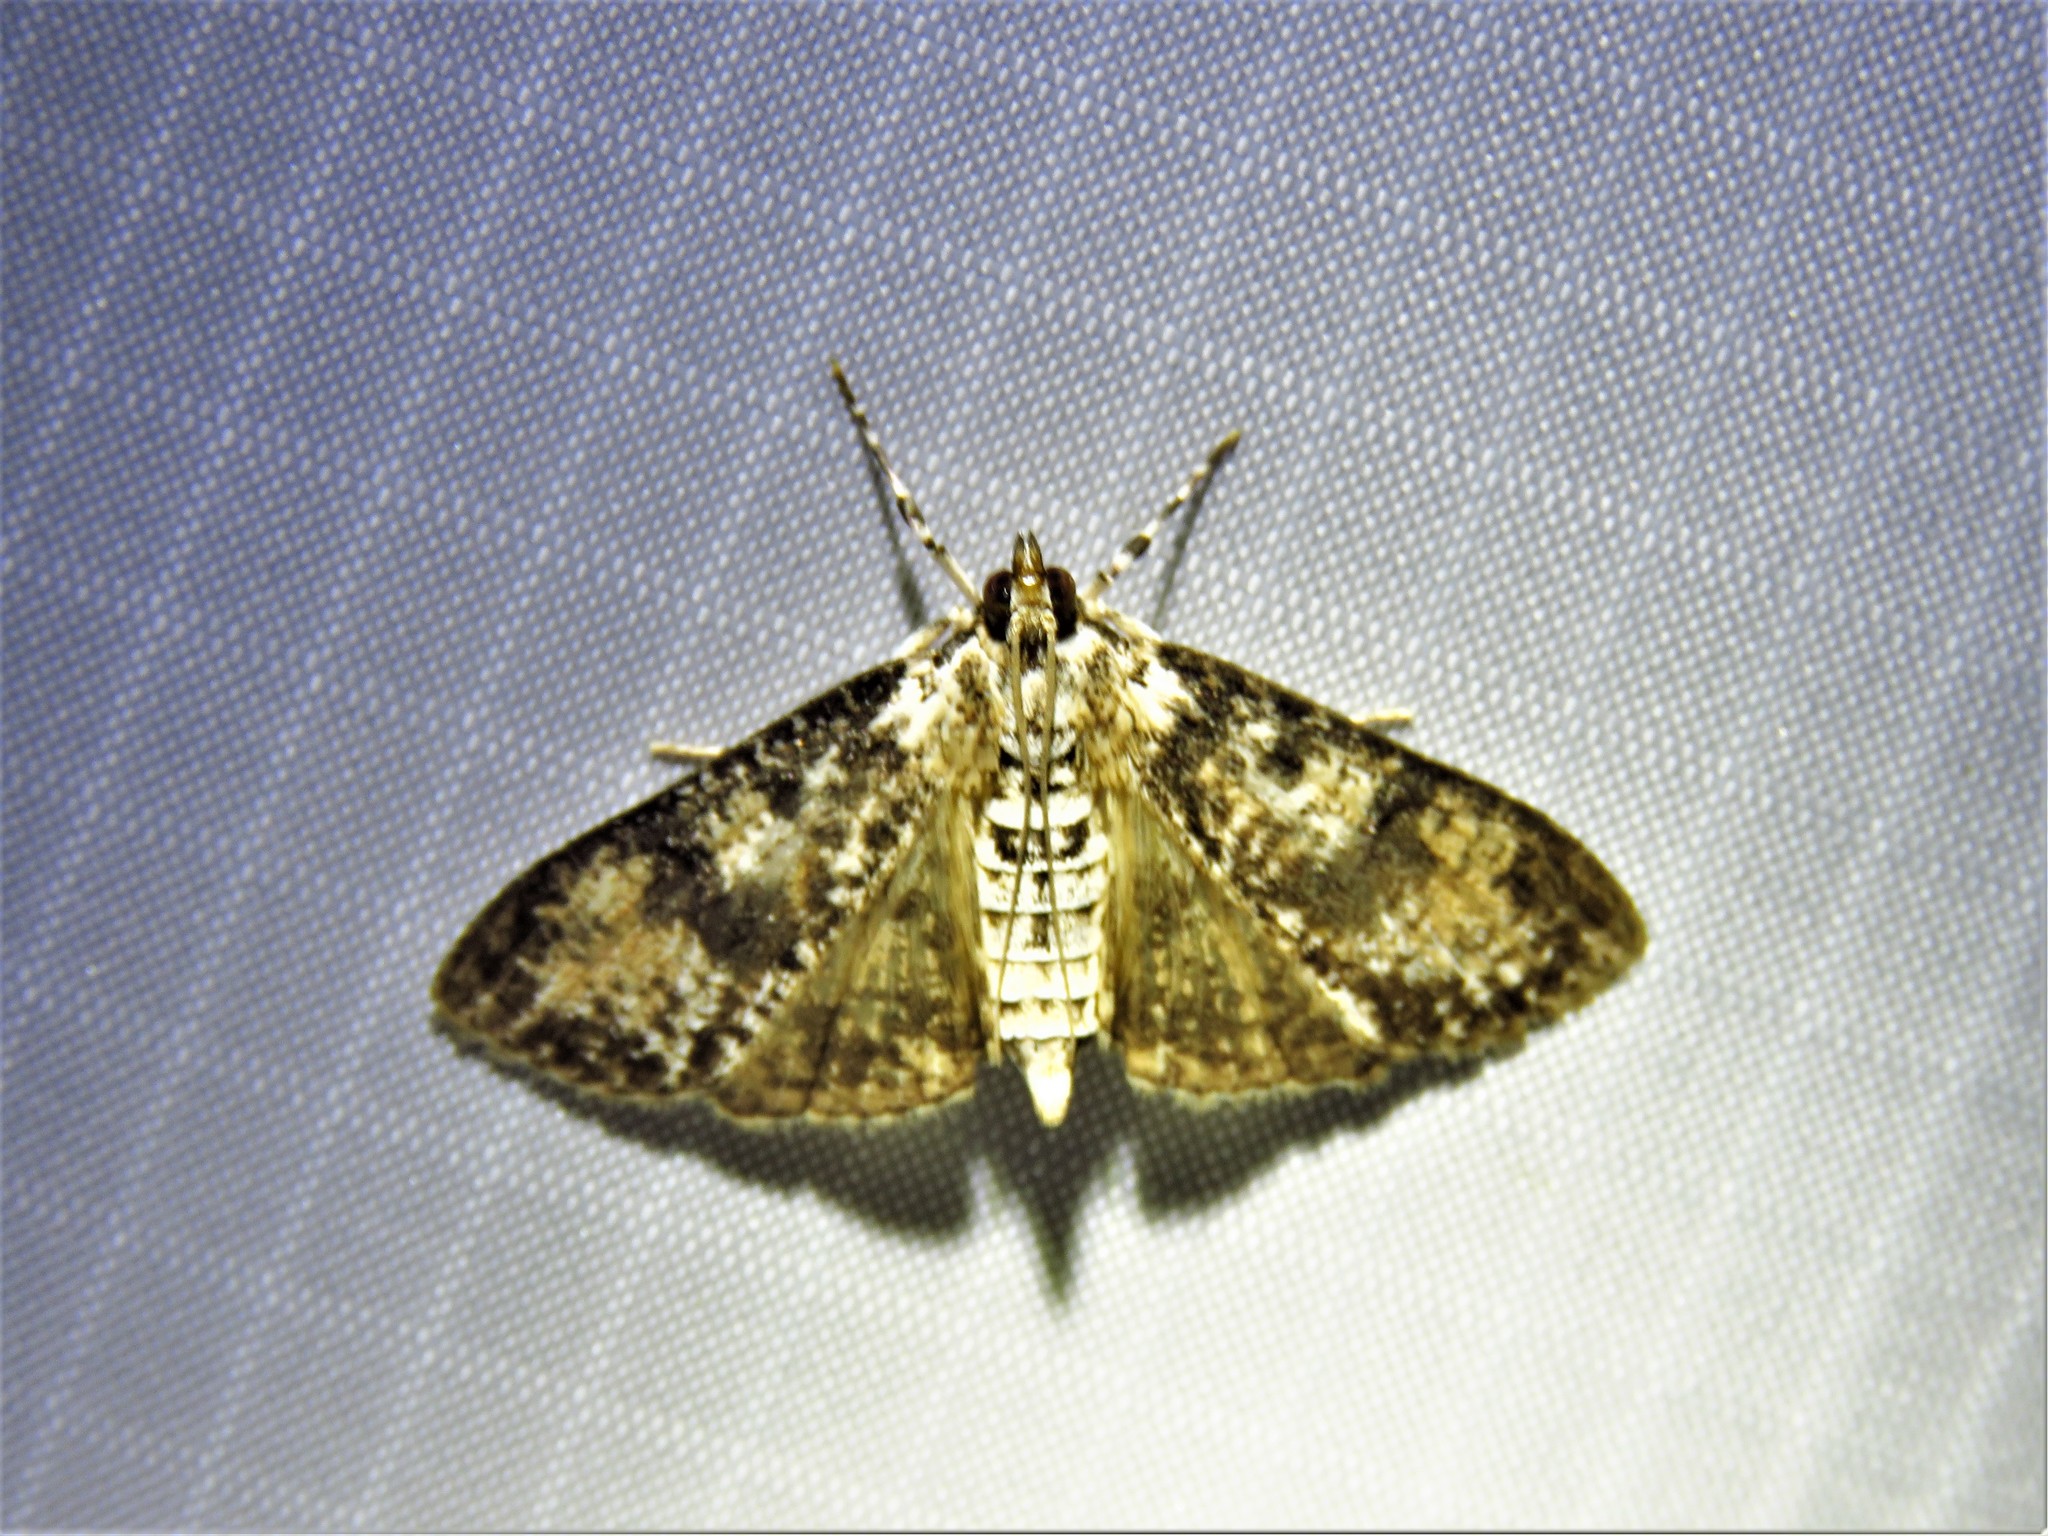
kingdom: Animalia
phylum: Arthropoda
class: Insecta
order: Lepidoptera
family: Crambidae
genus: Palpita
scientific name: Palpita magniferalis
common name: Splendid palpita moth
